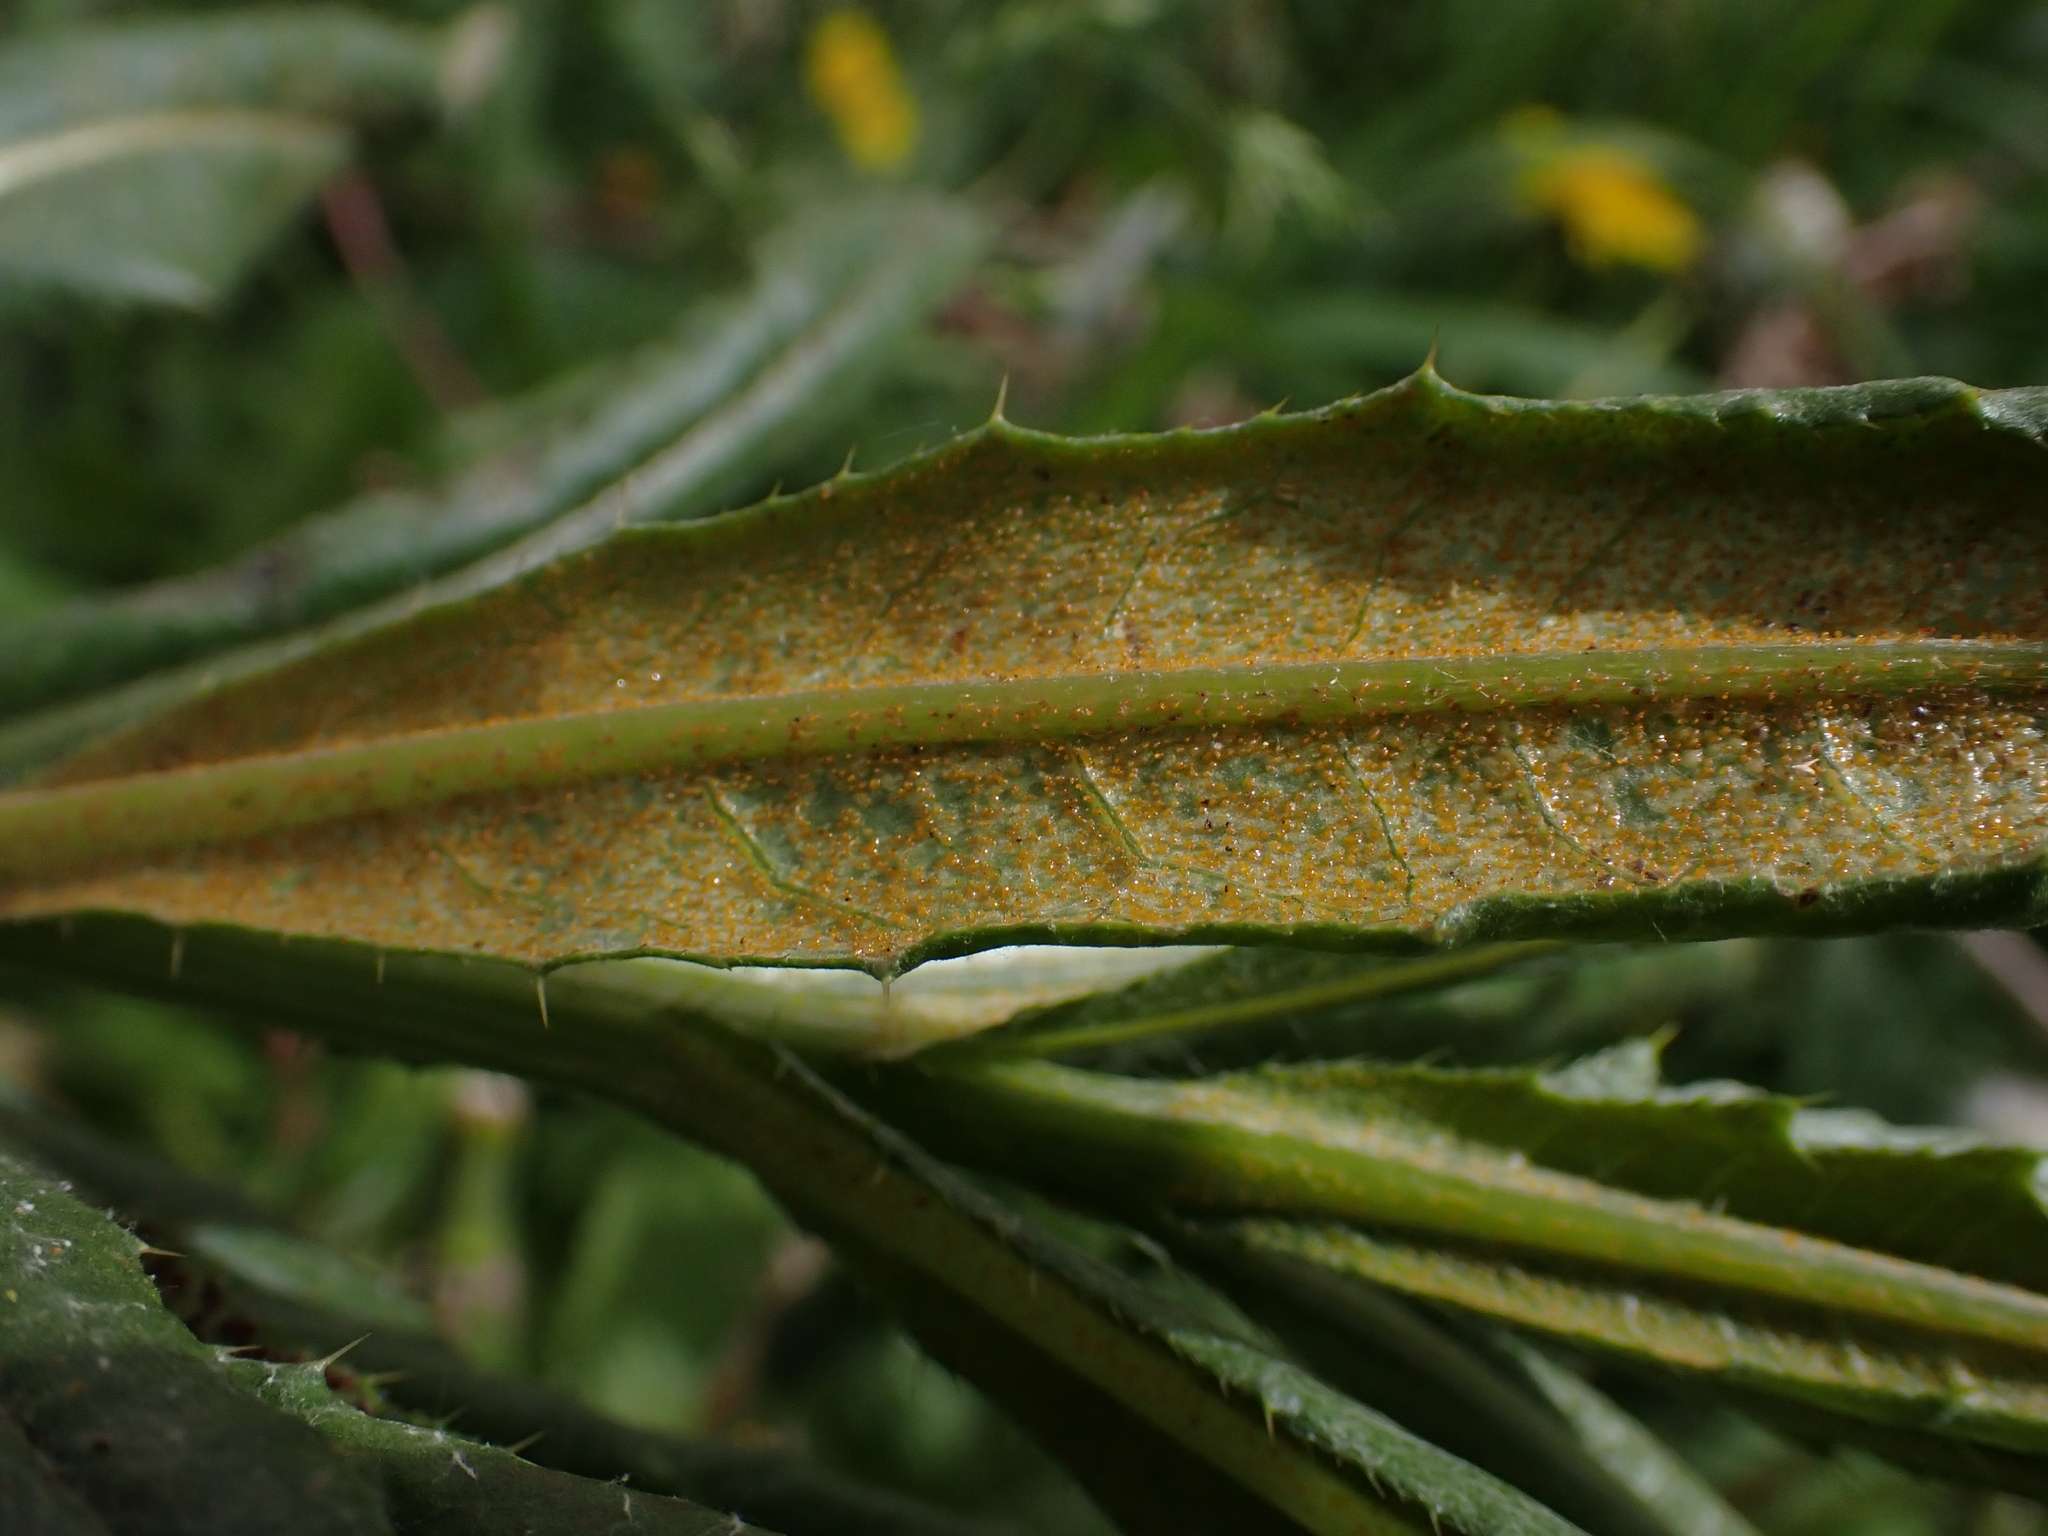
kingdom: Fungi
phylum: Basidiomycota
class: Pucciniomycetes
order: Pucciniales
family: Pucciniaceae
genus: Puccinia
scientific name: Puccinia suaveolens
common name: Thistle rust
